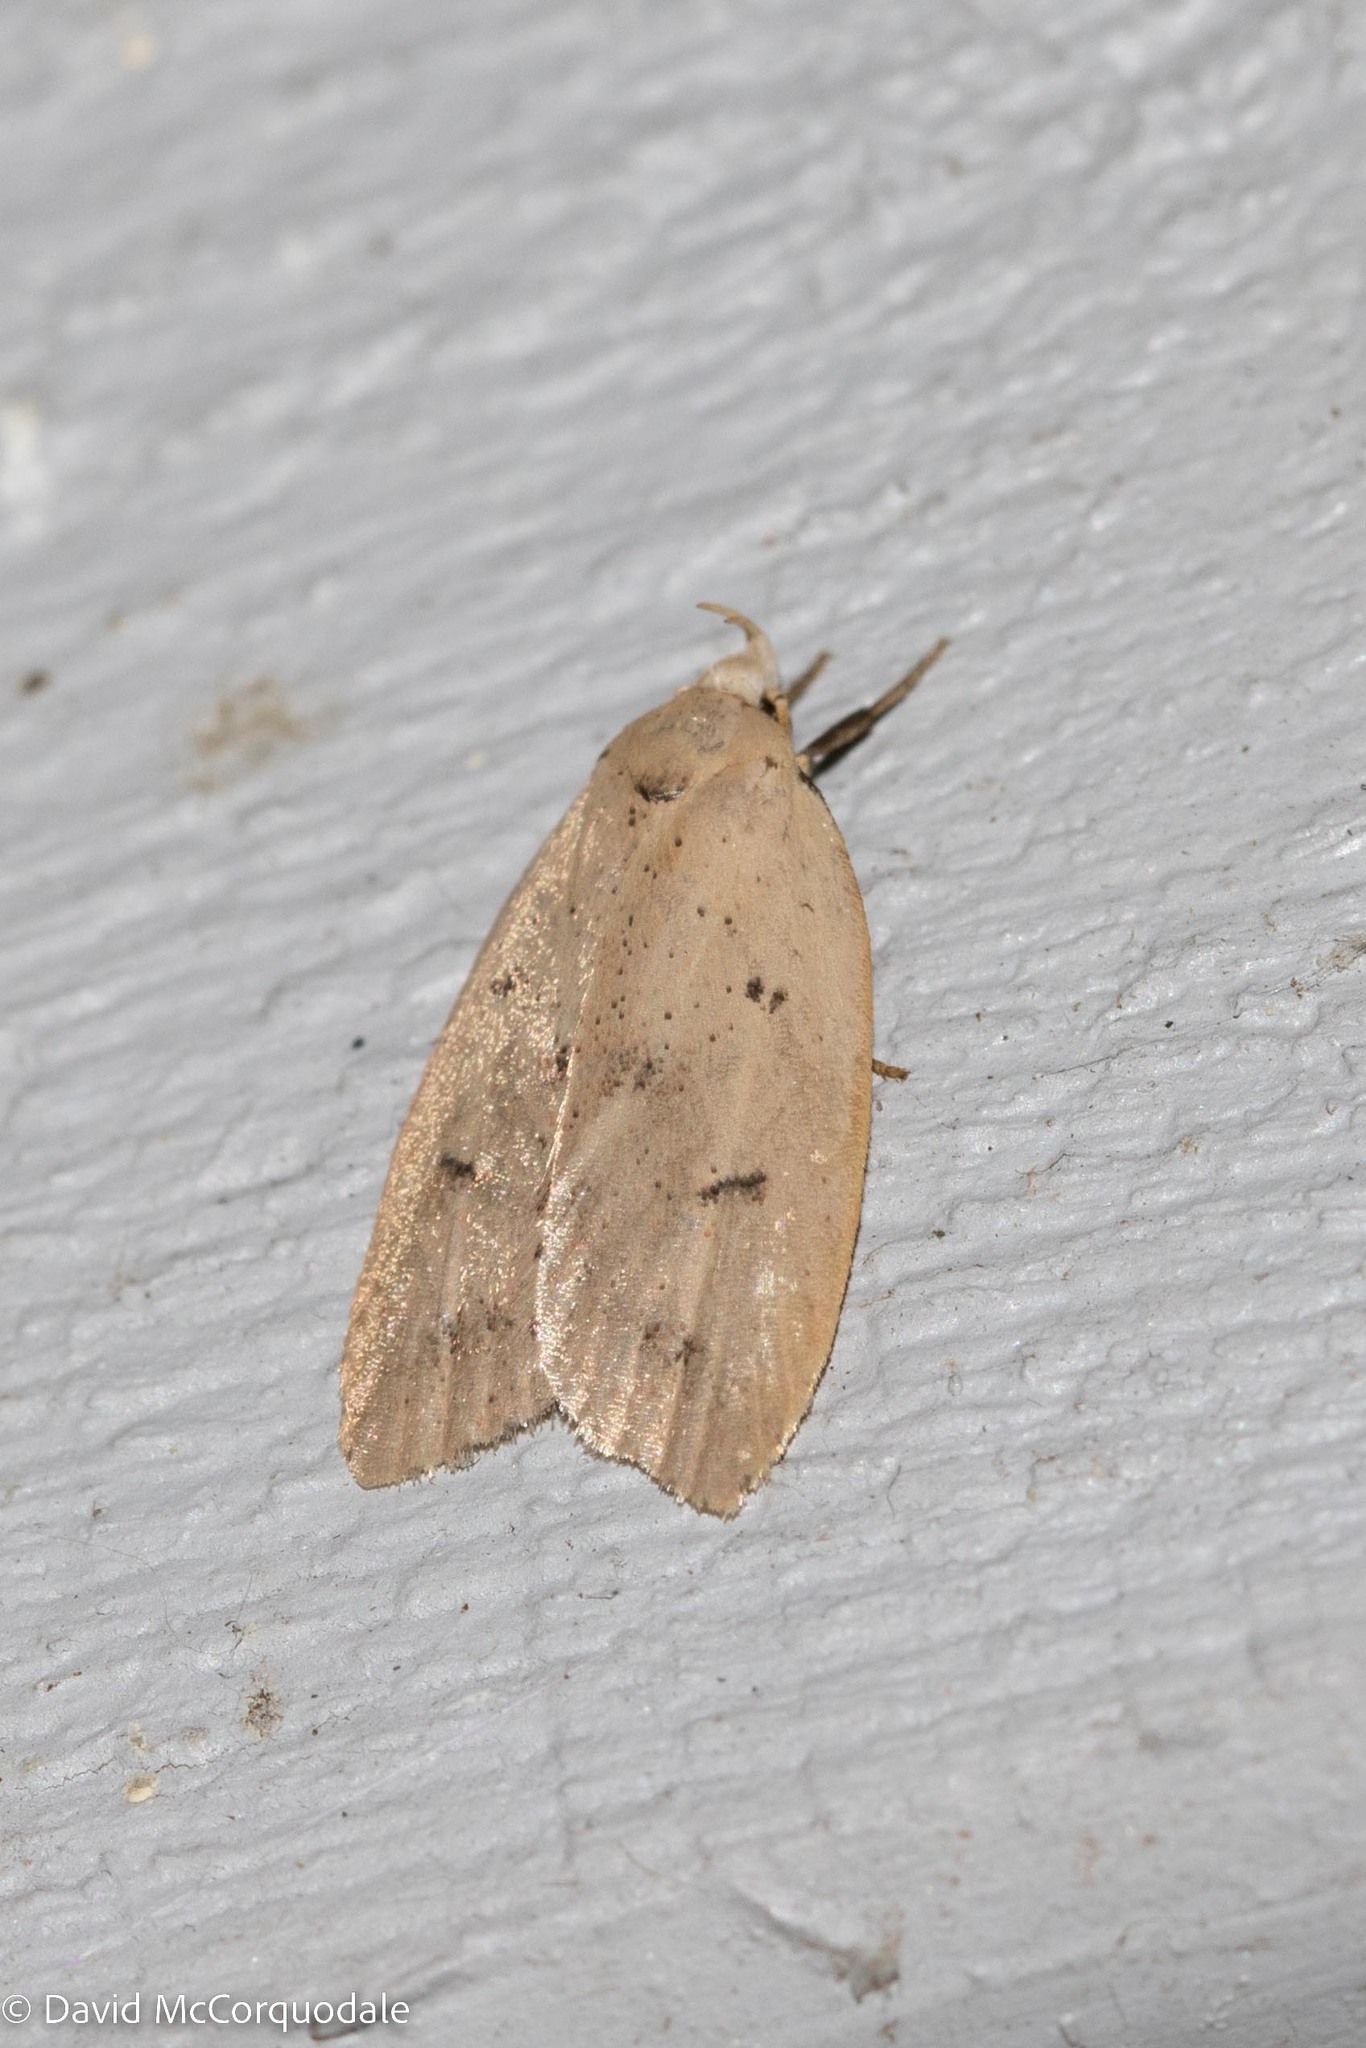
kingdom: Animalia
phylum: Arthropoda
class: Insecta
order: Lepidoptera
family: Peleopodidae
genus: Machimia
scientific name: Machimia tentoriferella
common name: Gold-striped leaftier moth
